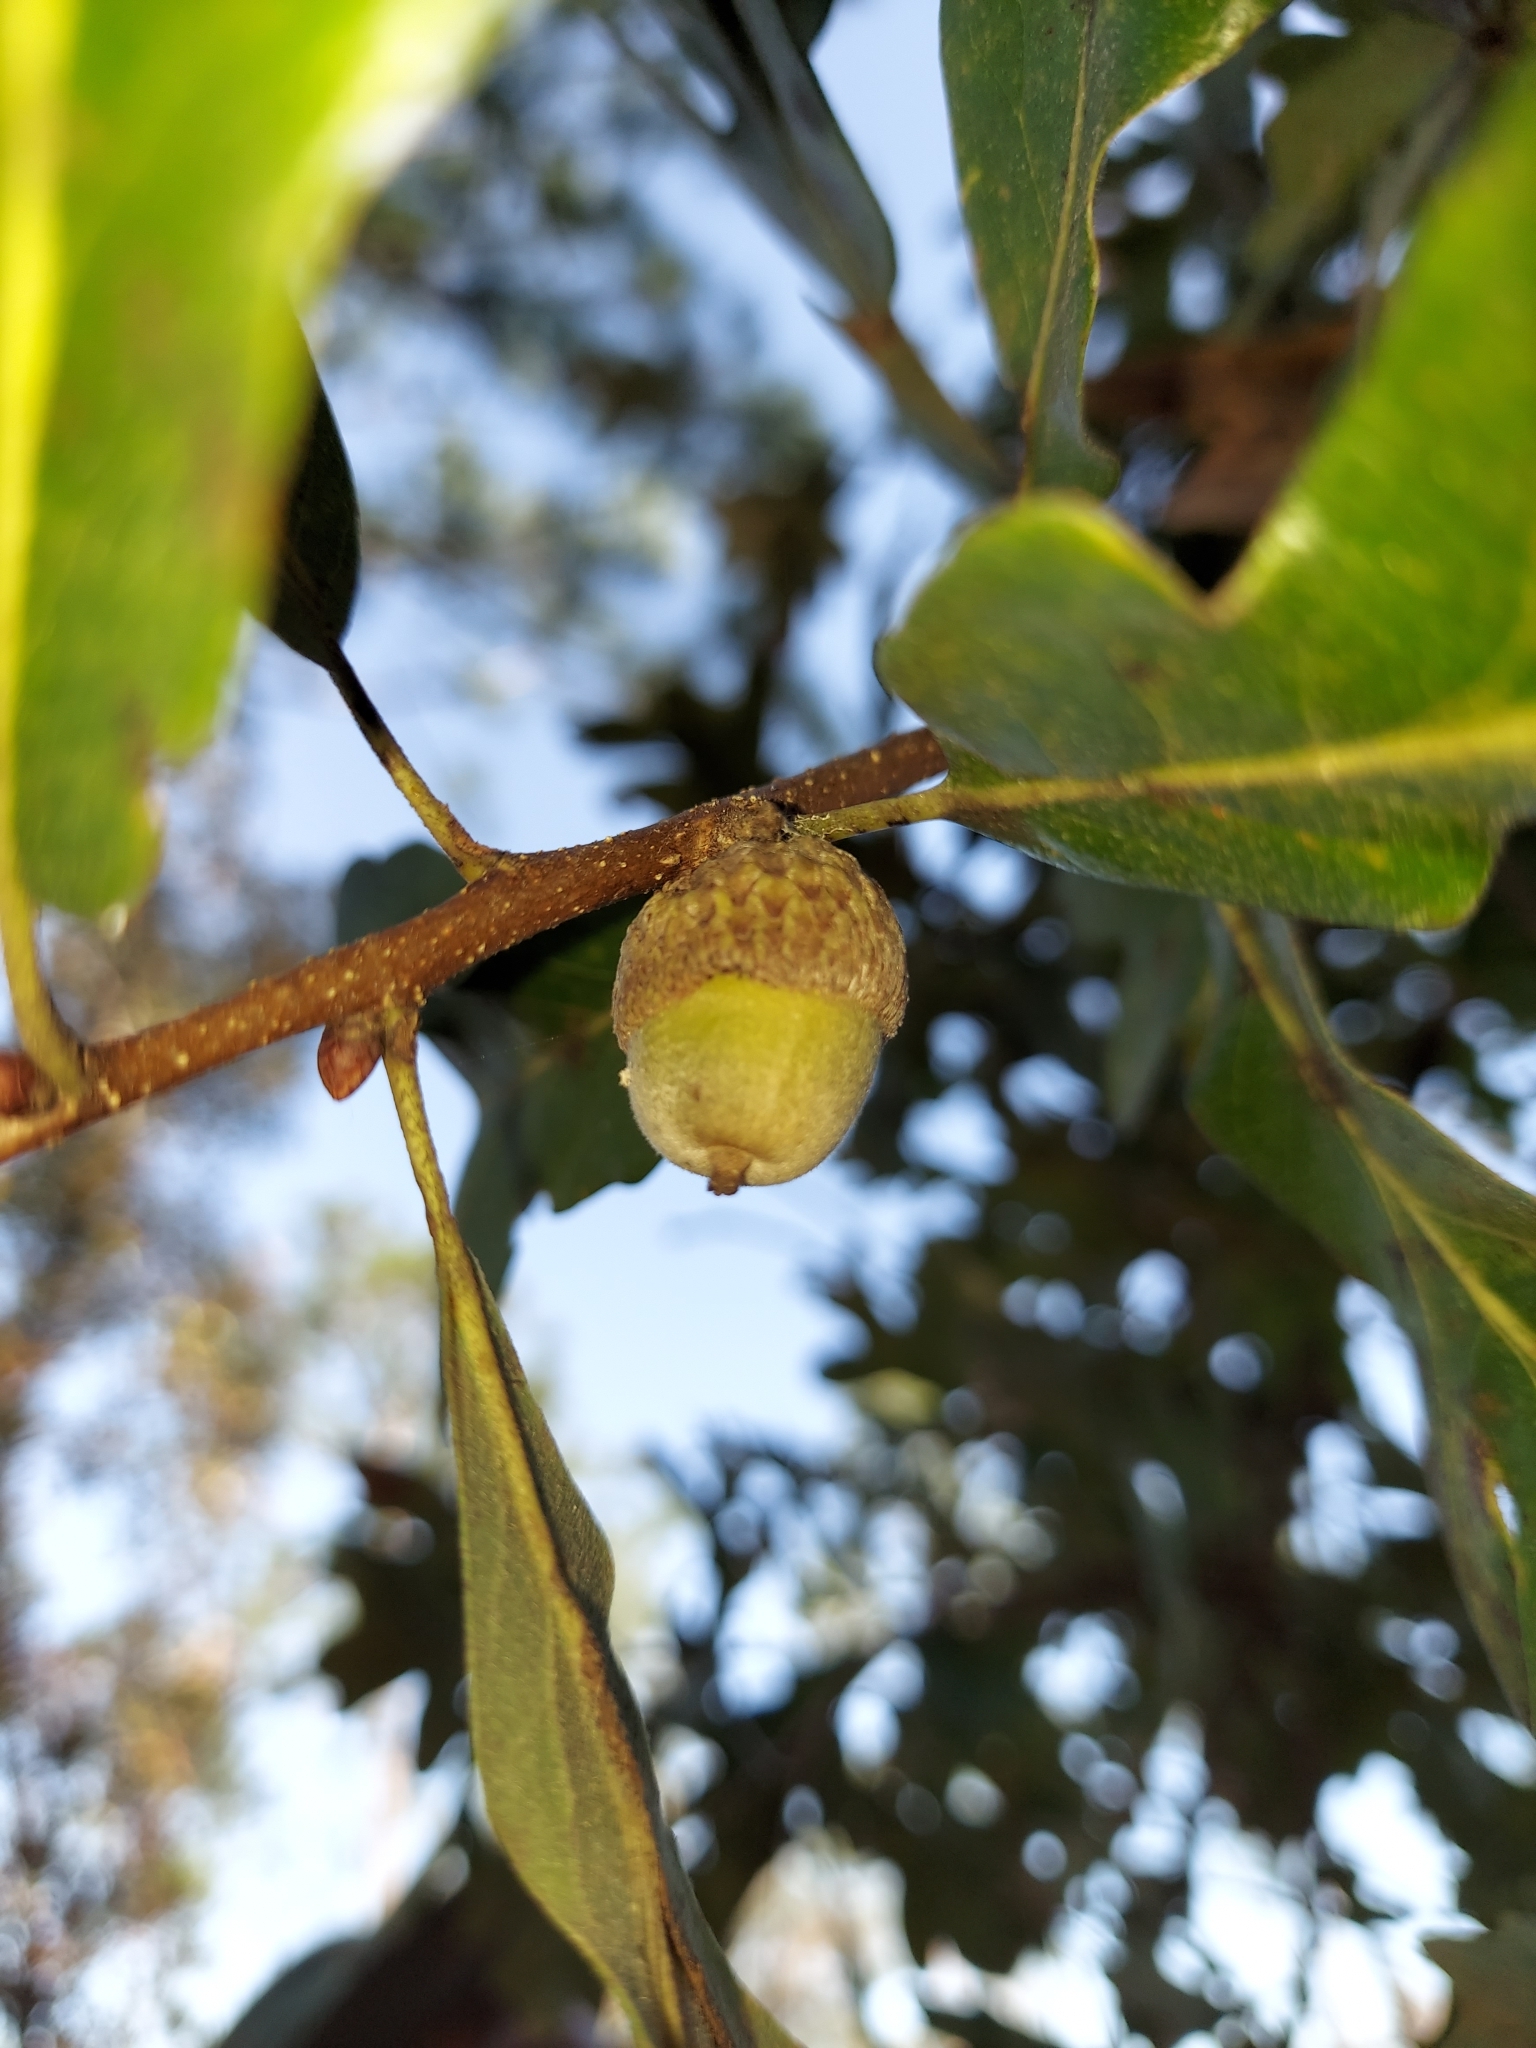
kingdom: Plantae
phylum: Tracheophyta
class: Magnoliopsida
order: Fagales
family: Fagaceae
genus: Quercus
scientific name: Quercus margaretiae
